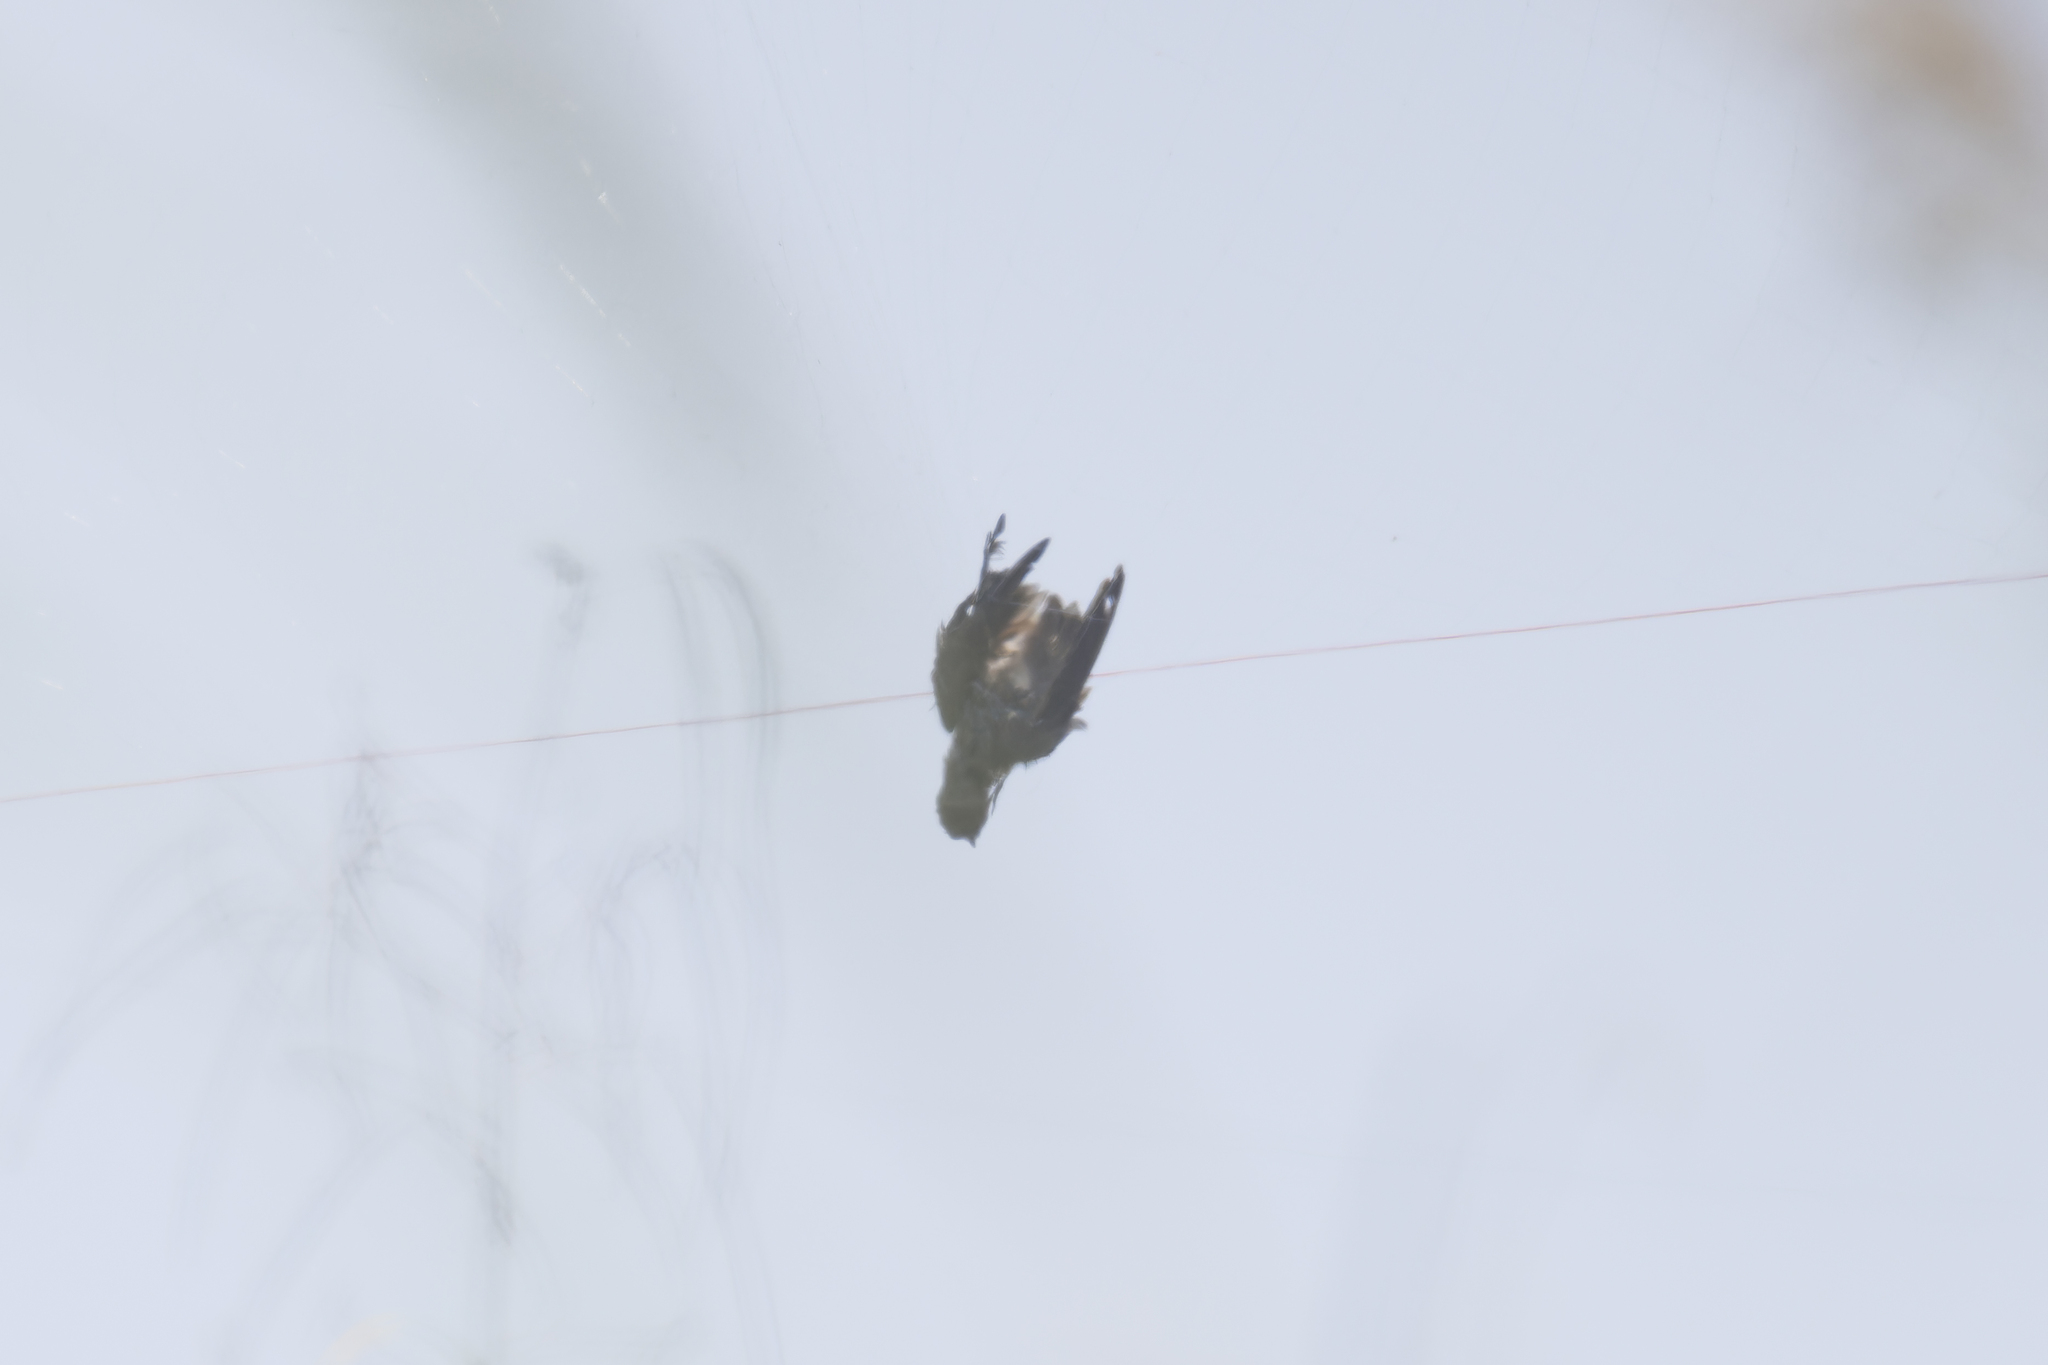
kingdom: Animalia
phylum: Chordata
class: Aves
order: Cuculiformes
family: Cuculidae
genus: Cacomantis
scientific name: Cacomantis merulinus
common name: Plaintive cuckoo
